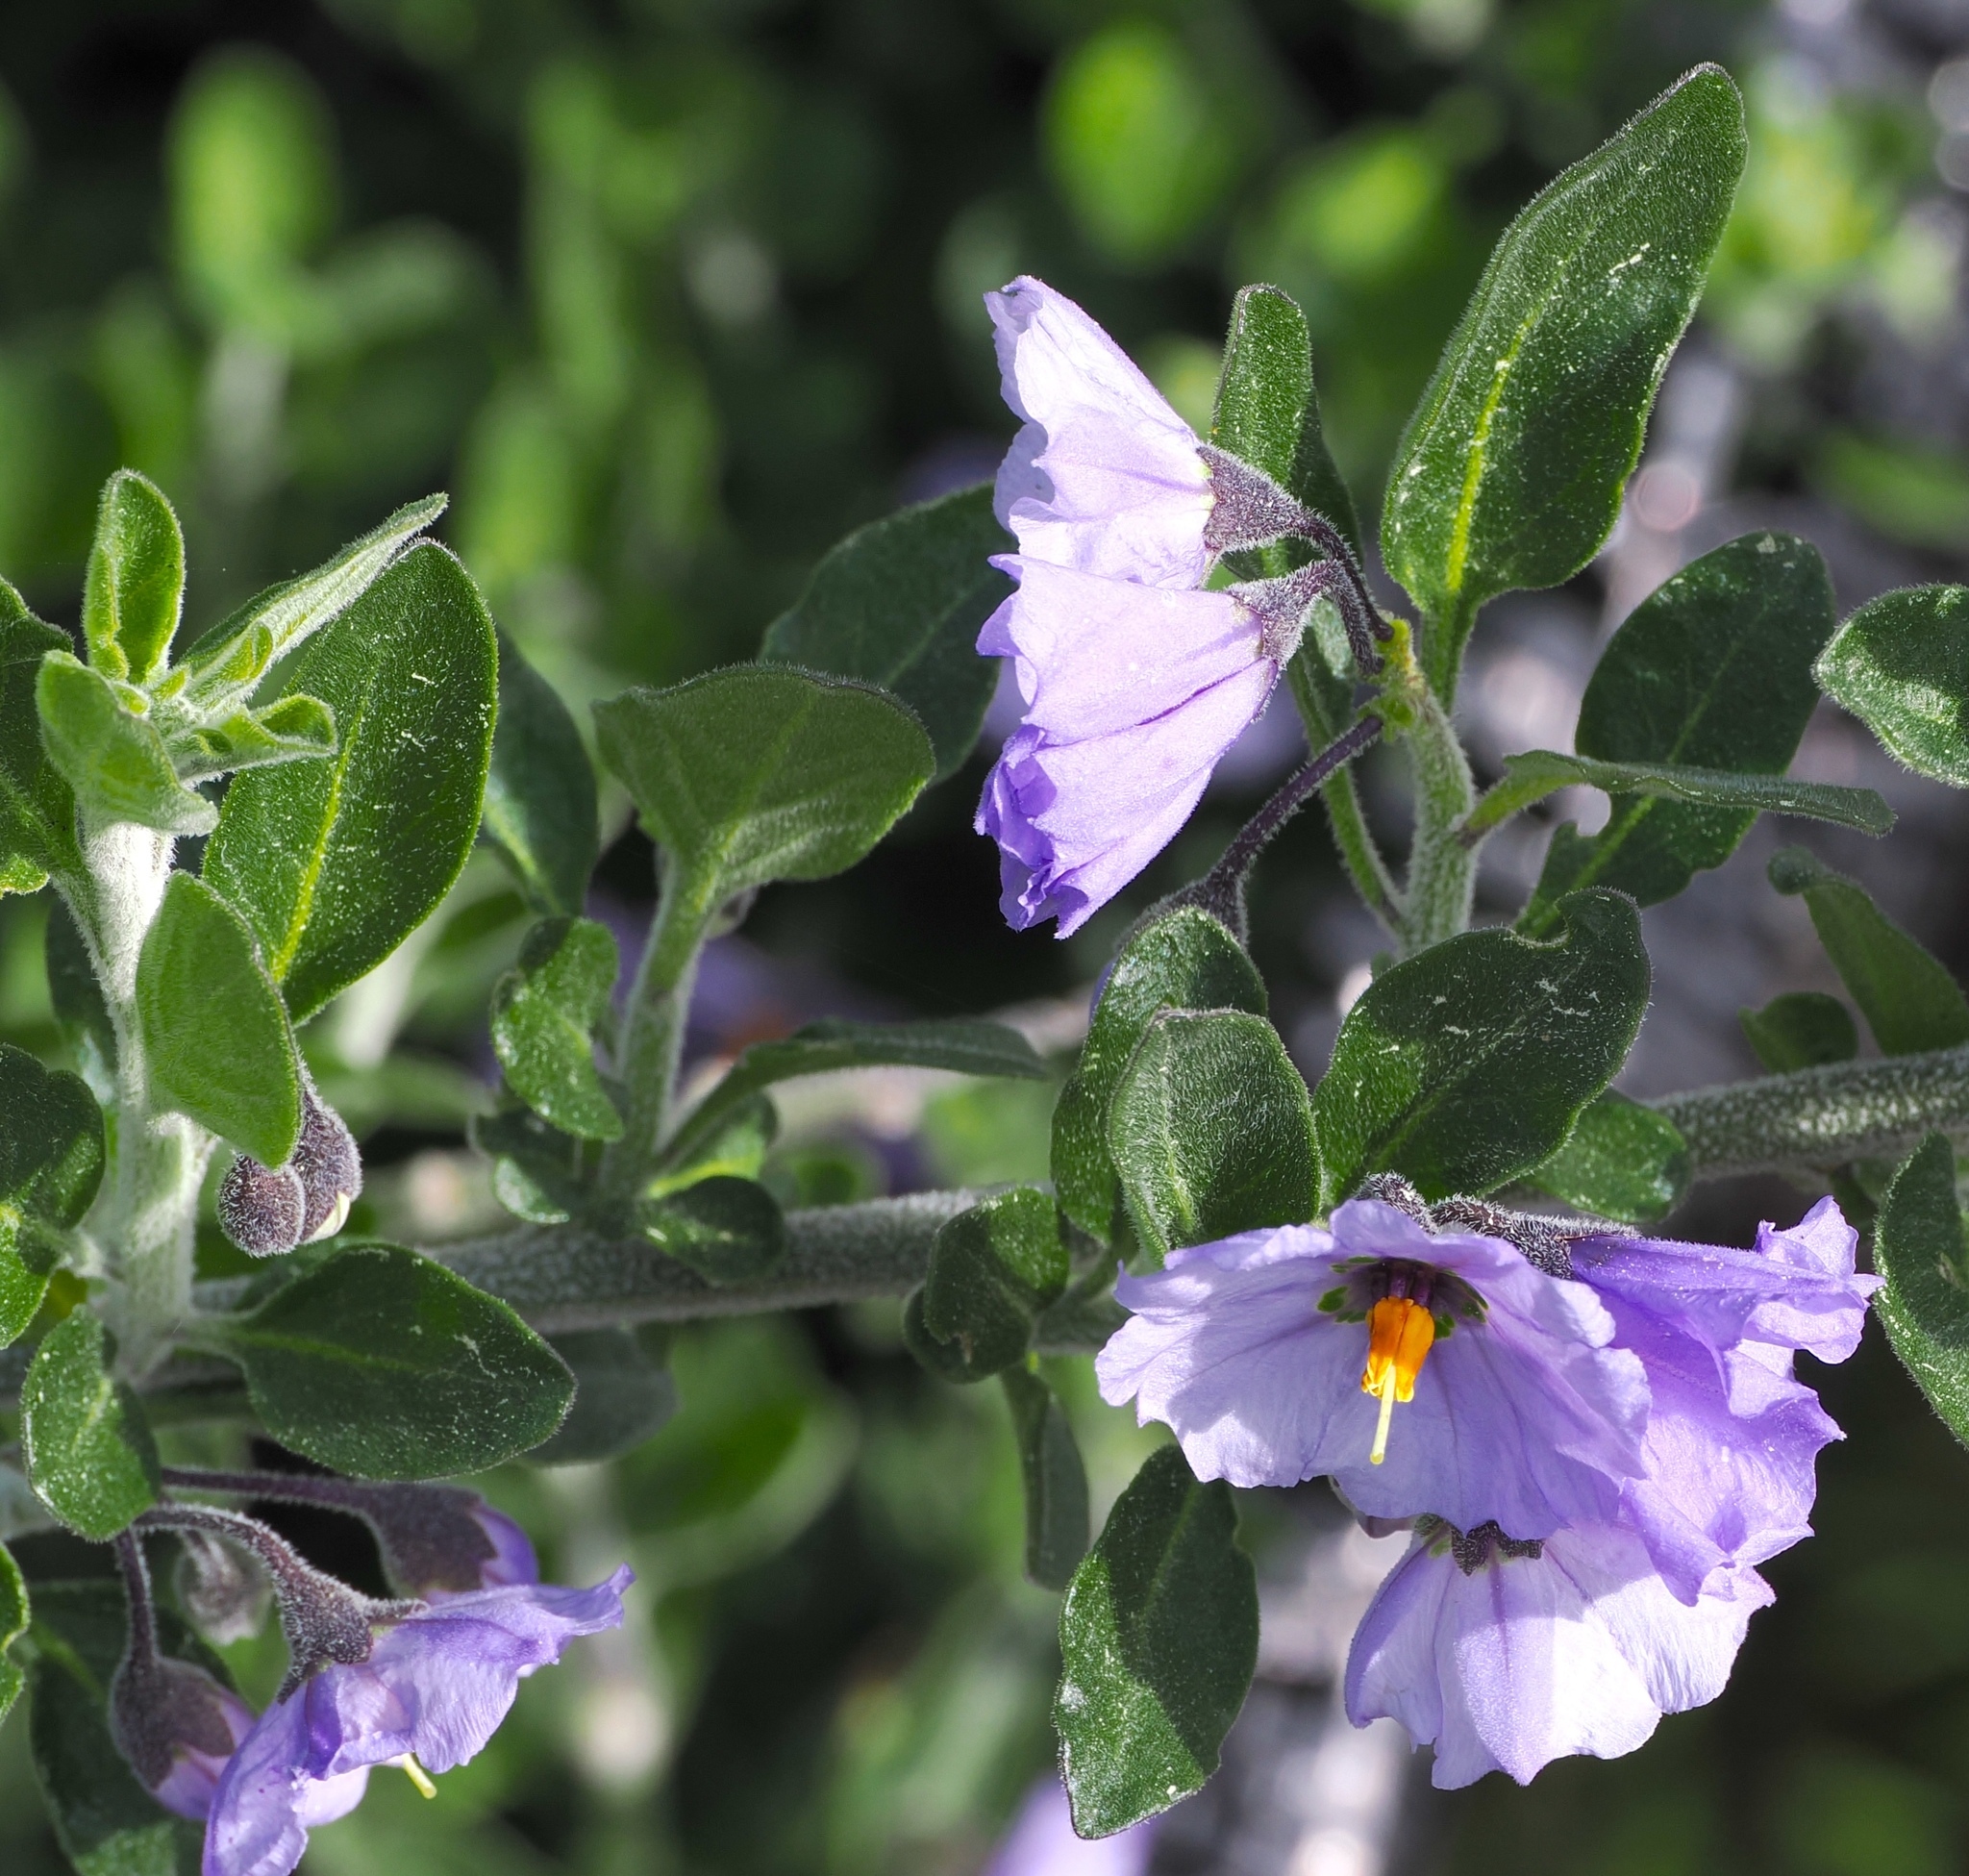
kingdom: Plantae
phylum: Tracheophyta
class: Magnoliopsida
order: Solanales
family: Solanaceae
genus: Solanum
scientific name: Solanum umbelliferum
